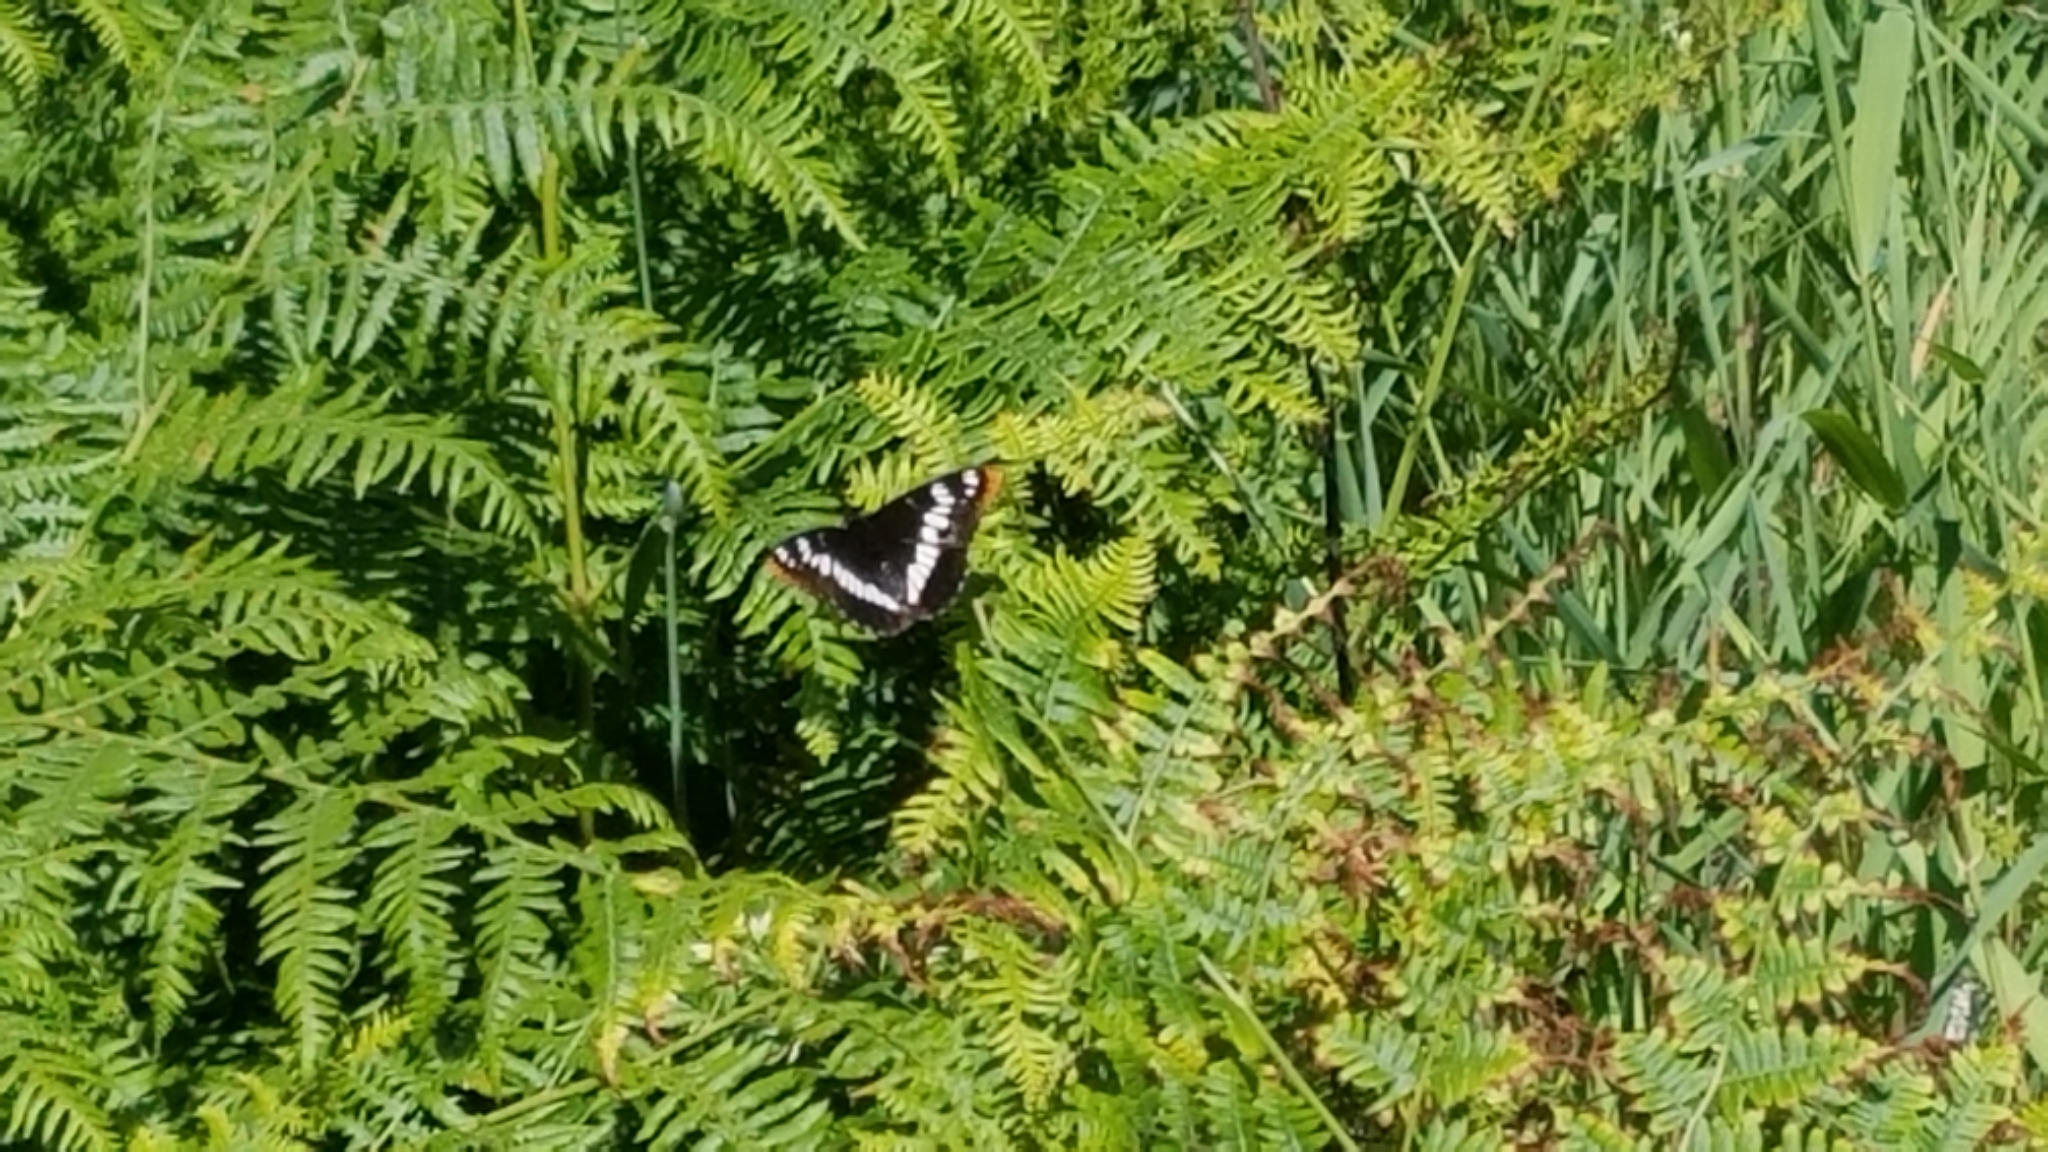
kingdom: Animalia
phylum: Arthropoda
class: Insecta
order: Lepidoptera
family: Nymphalidae
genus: Limenitis
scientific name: Limenitis lorquini
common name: Lorquin's admiral
